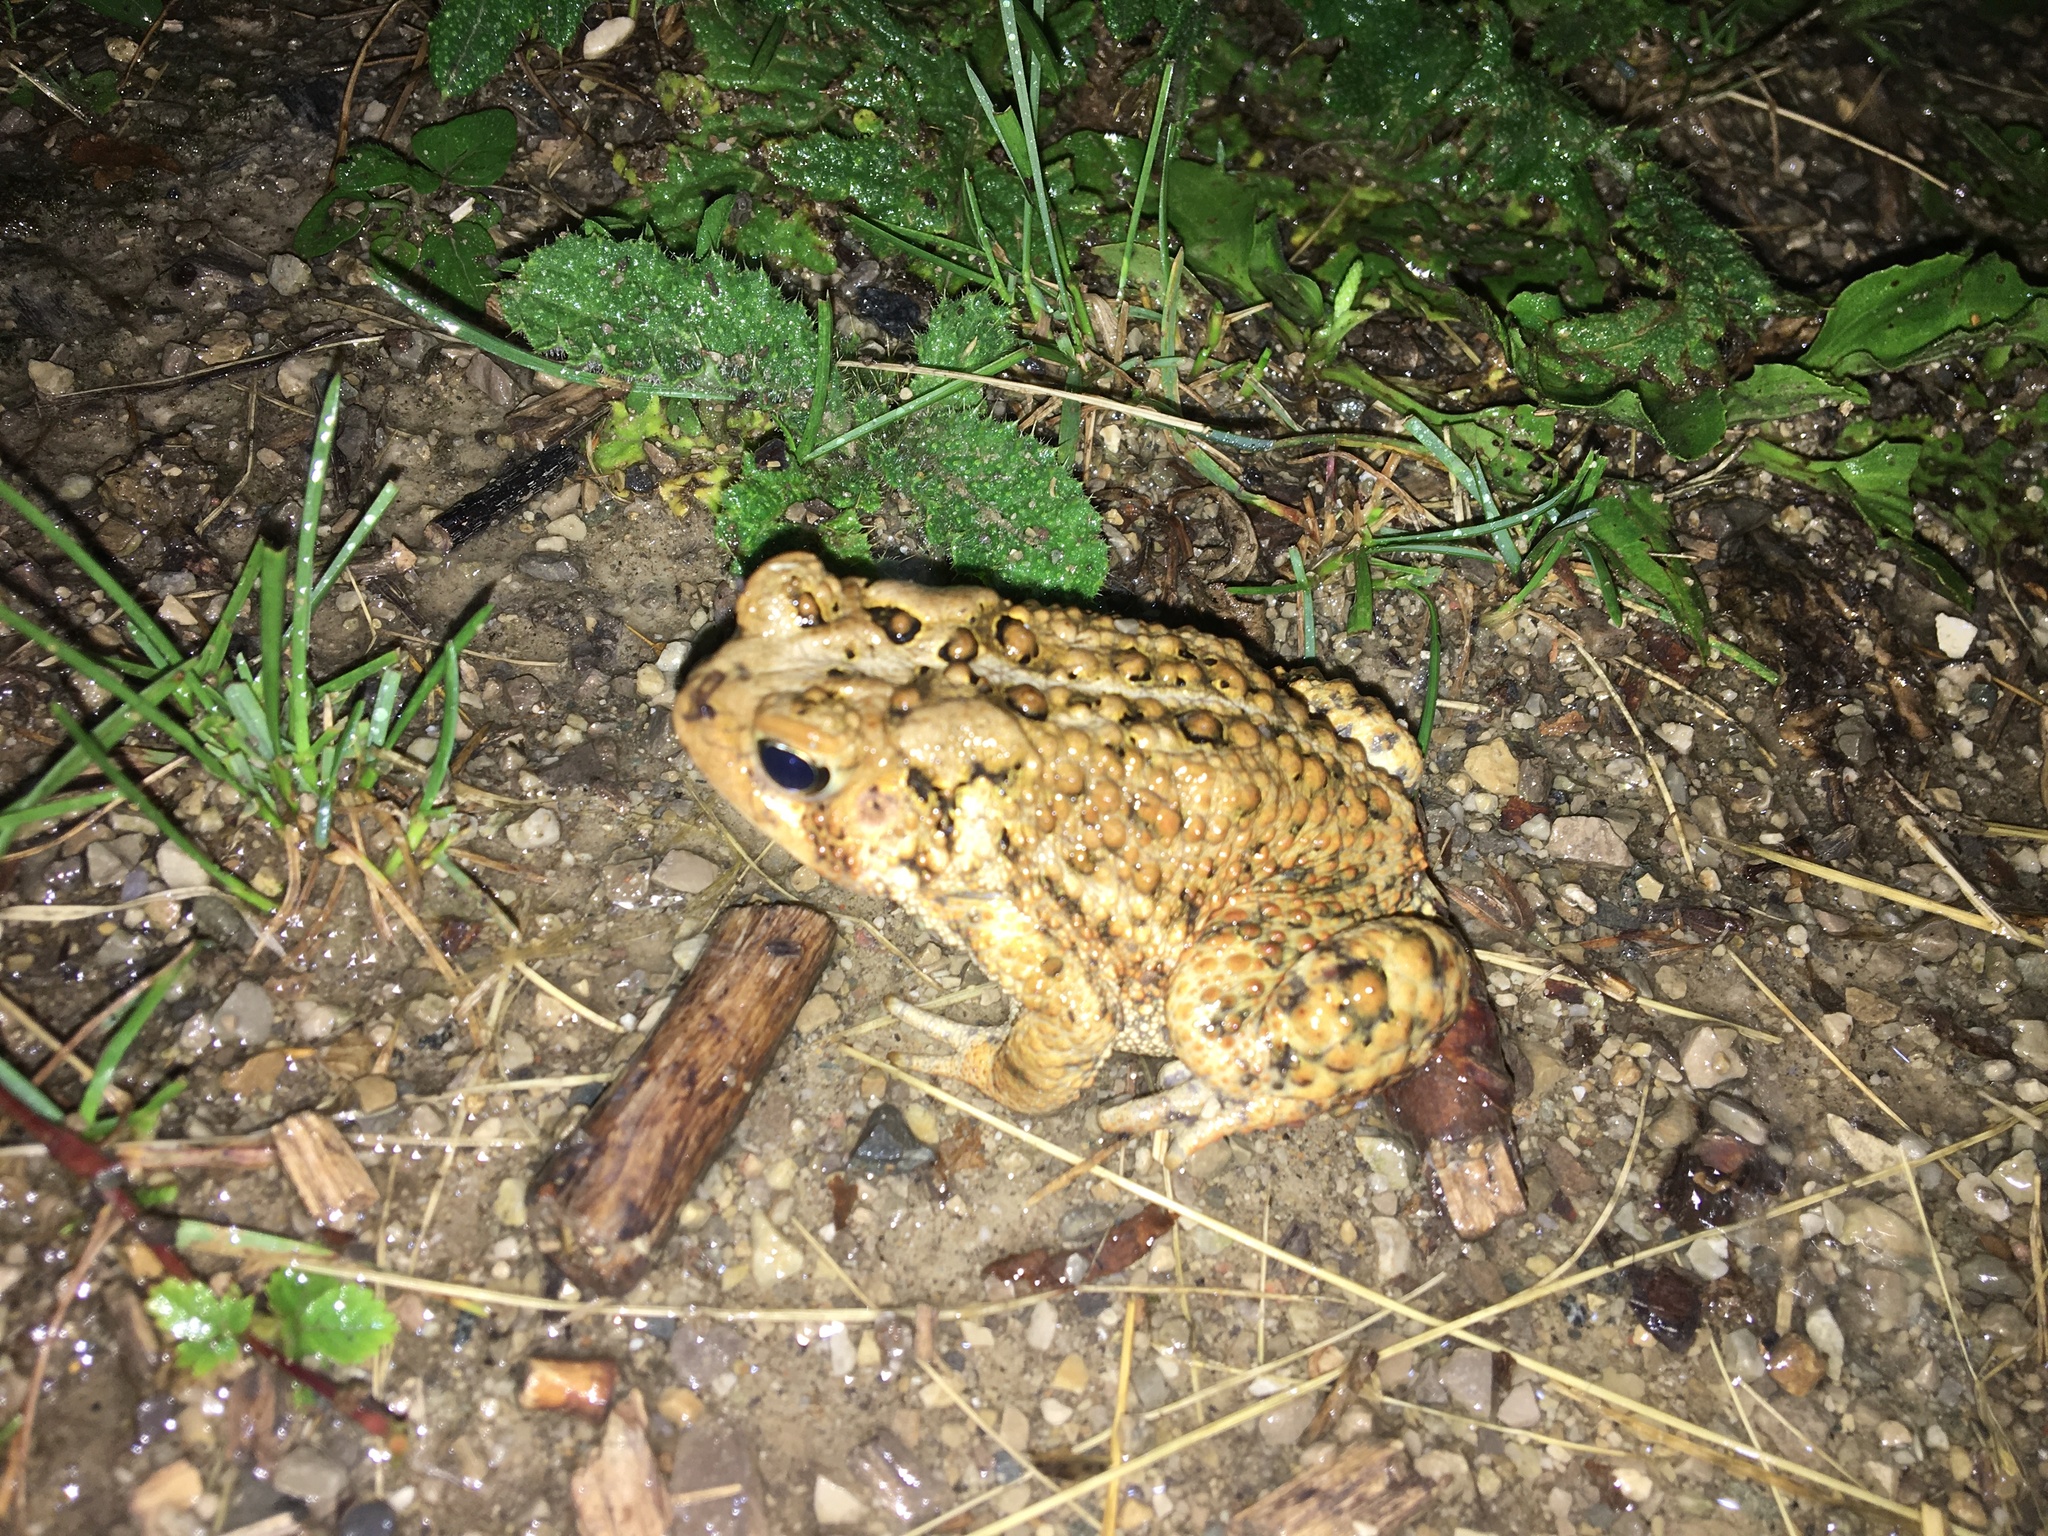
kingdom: Animalia
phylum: Chordata
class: Amphibia
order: Anura
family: Bufonidae
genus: Anaxyrus
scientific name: Anaxyrus americanus
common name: American toad
